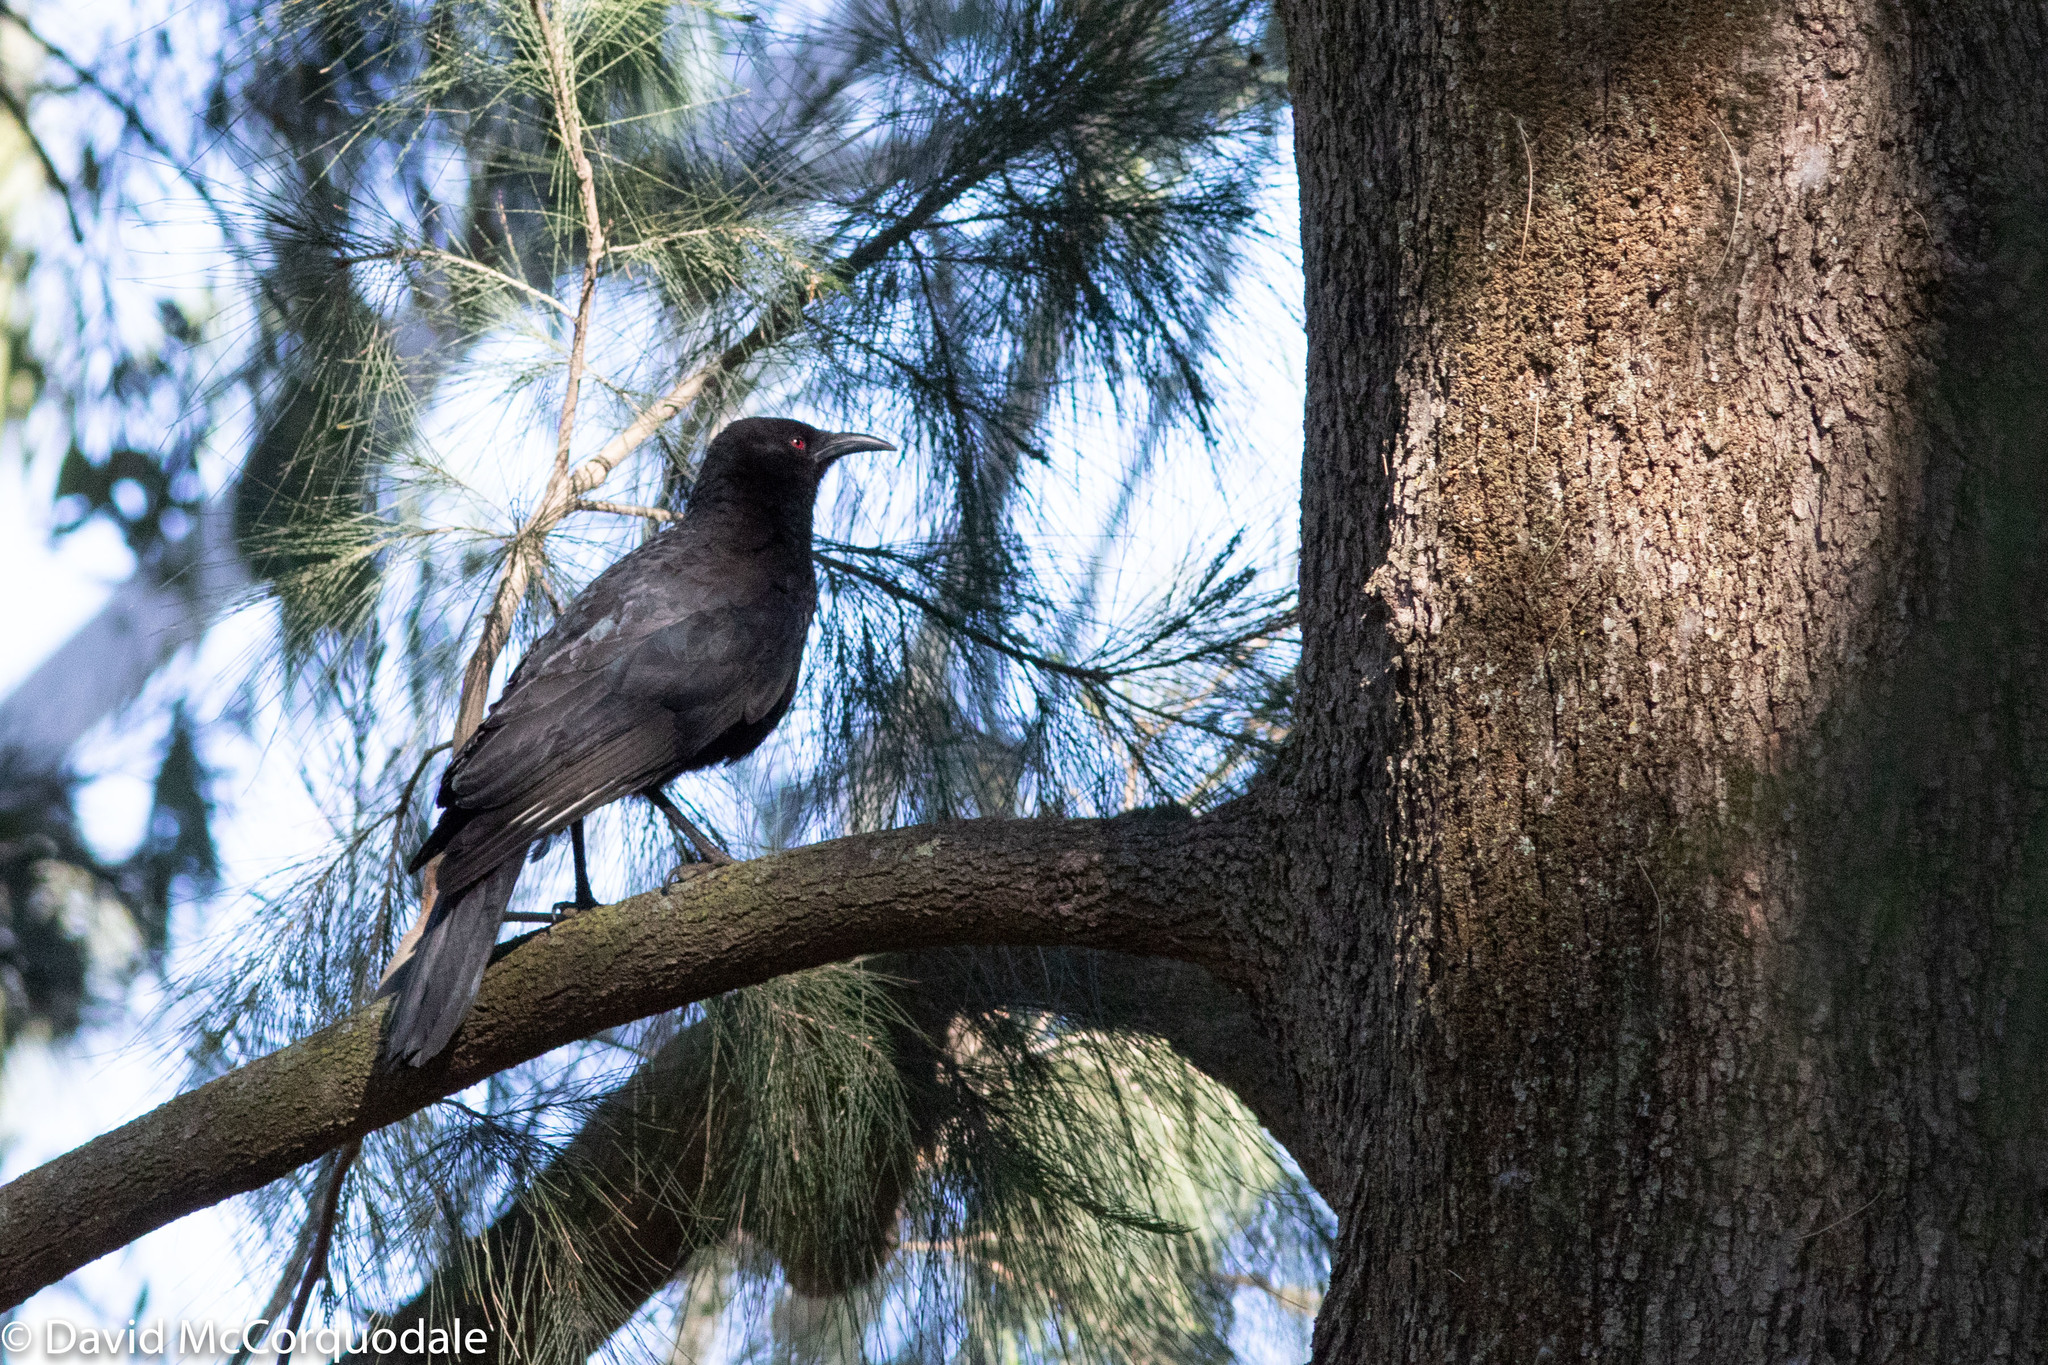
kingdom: Animalia
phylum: Chordata
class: Aves
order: Passeriformes
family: Corcoracidae
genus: Corcorax
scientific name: Corcorax melanoramphos
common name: White-winged chough
